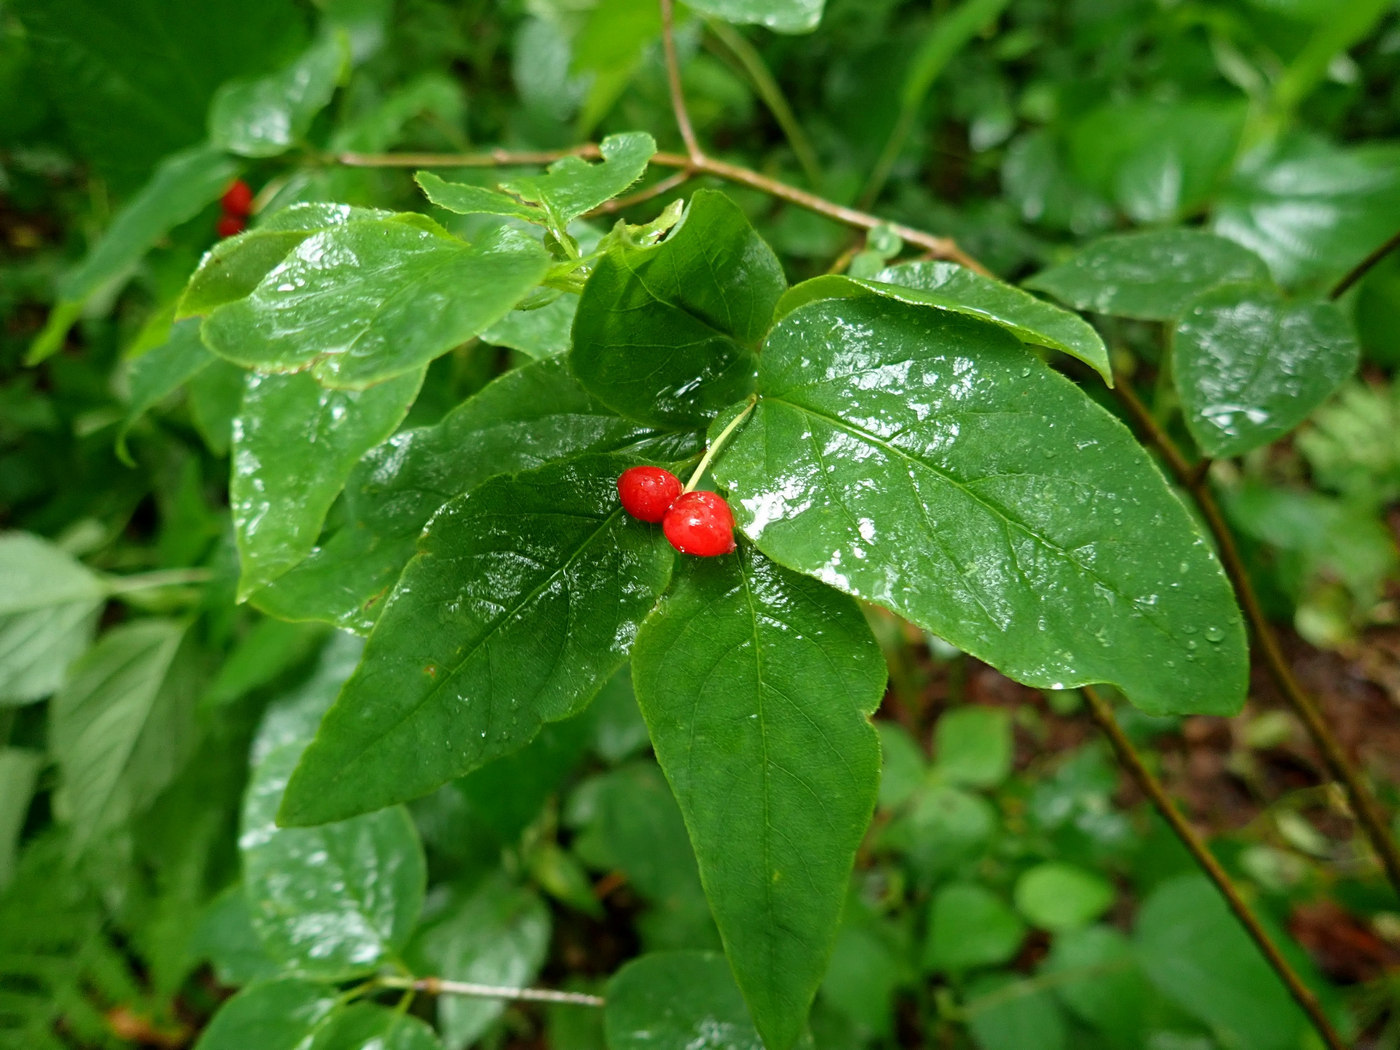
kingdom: Plantae
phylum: Tracheophyta
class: Magnoliopsida
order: Dipsacales
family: Caprifoliaceae
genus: Lonicera
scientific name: Lonicera canadensis
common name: American fly-honeysuckle
